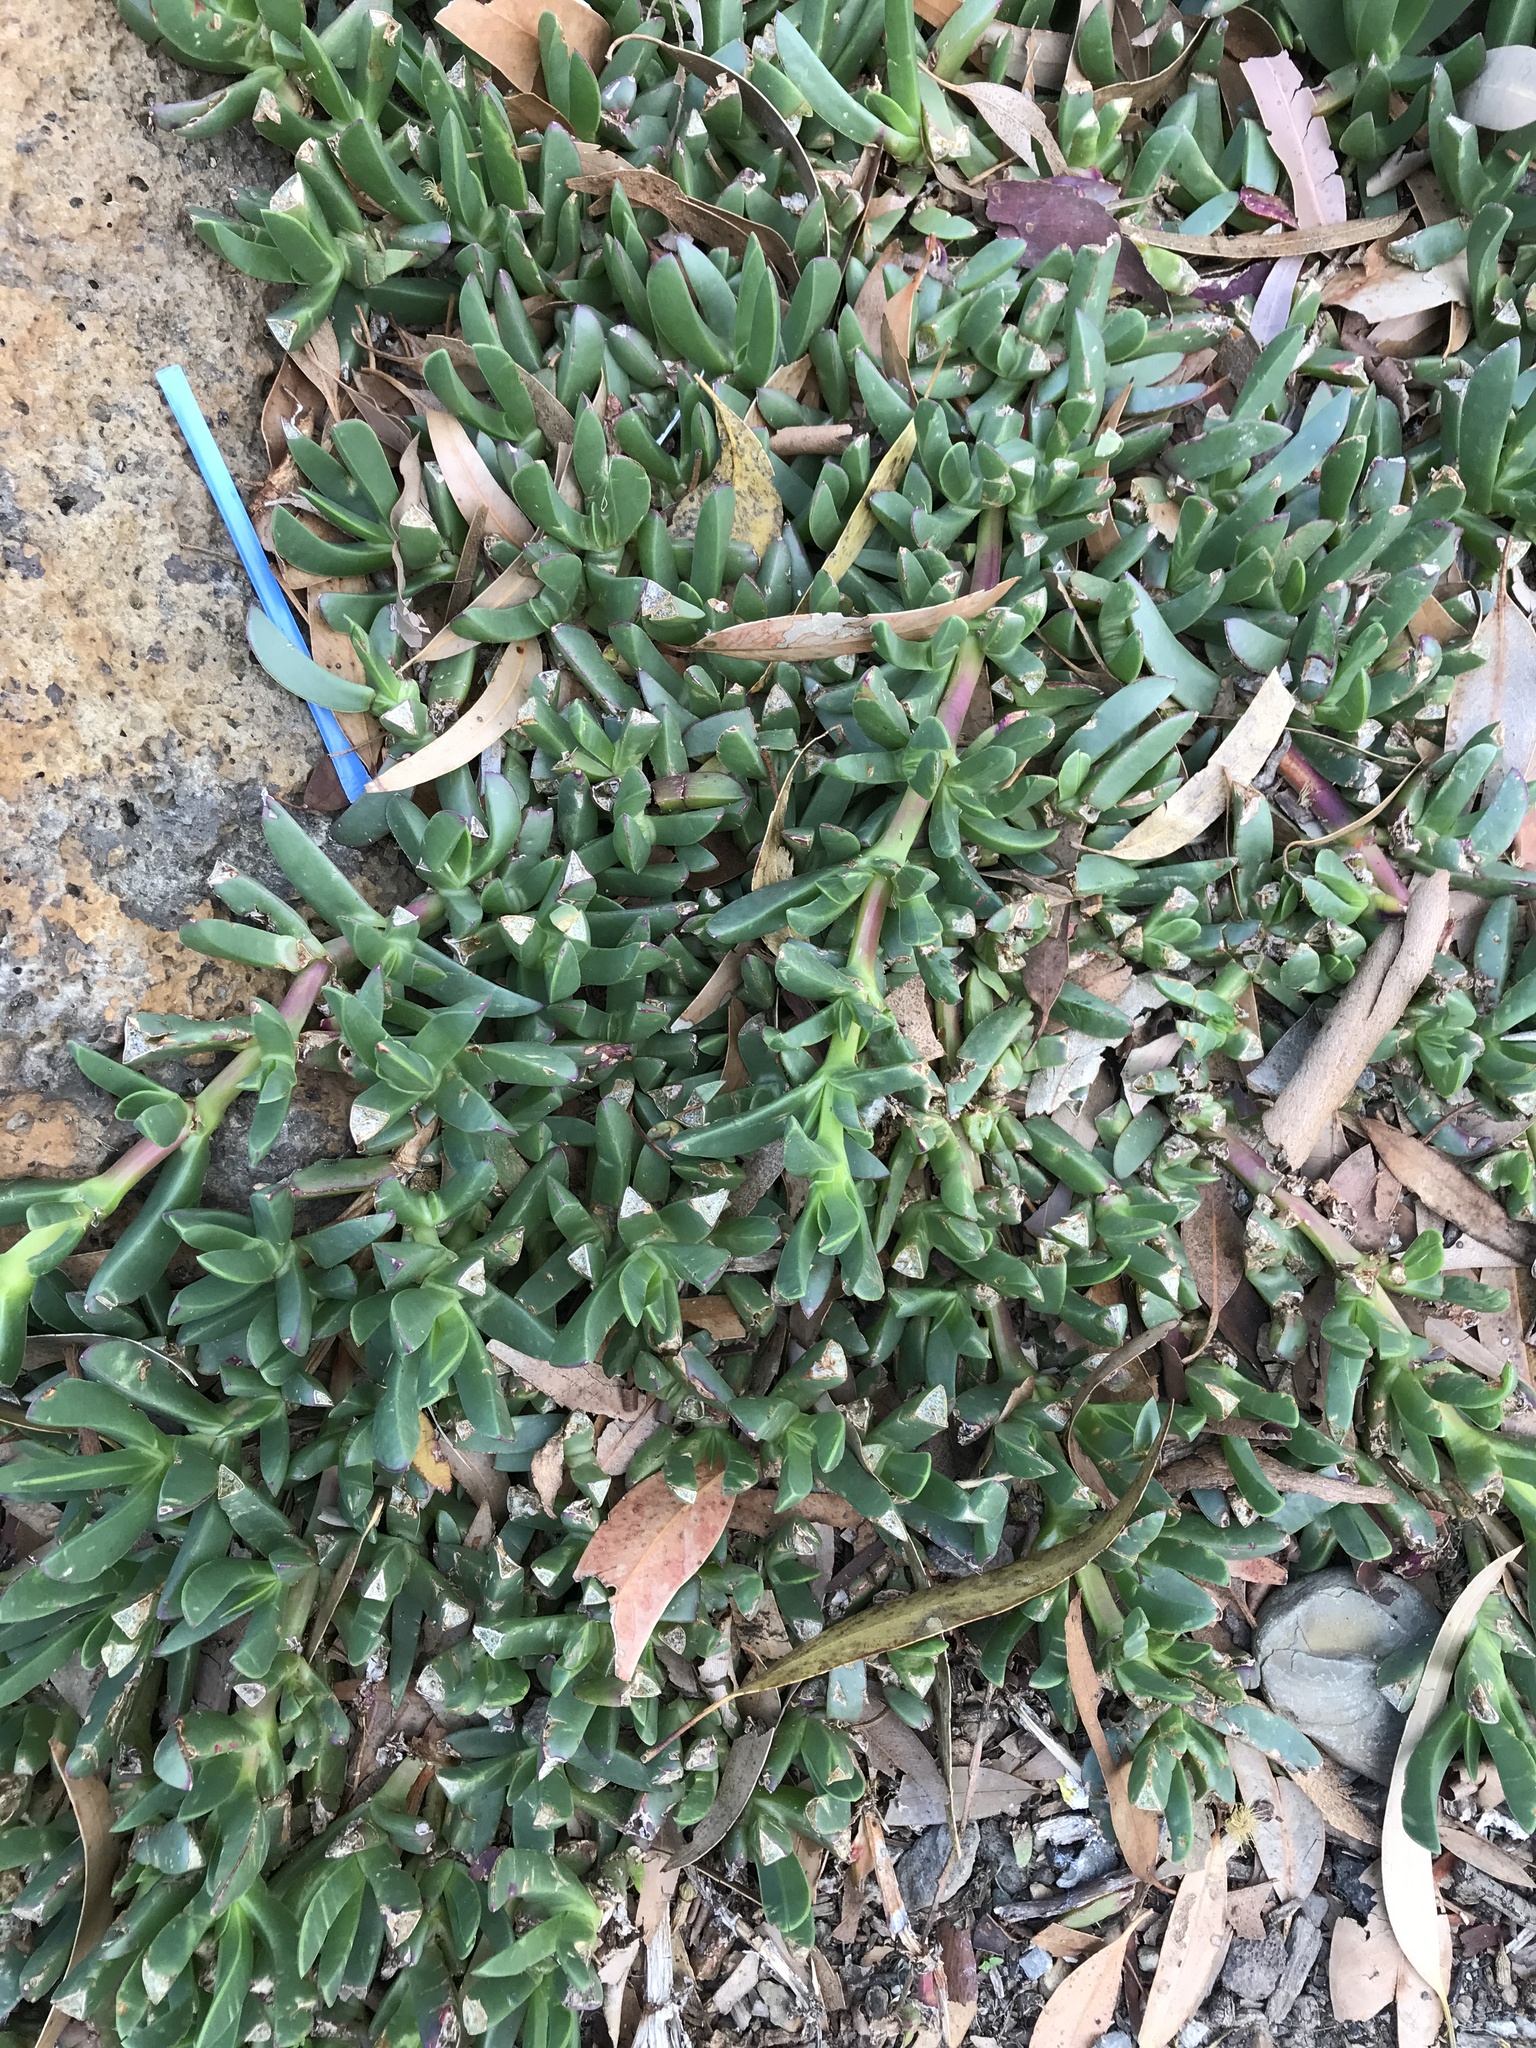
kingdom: Plantae
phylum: Tracheophyta
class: Magnoliopsida
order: Caryophyllales
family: Aizoaceae
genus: Carpobrotus
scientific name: Carpobrotus modestus
